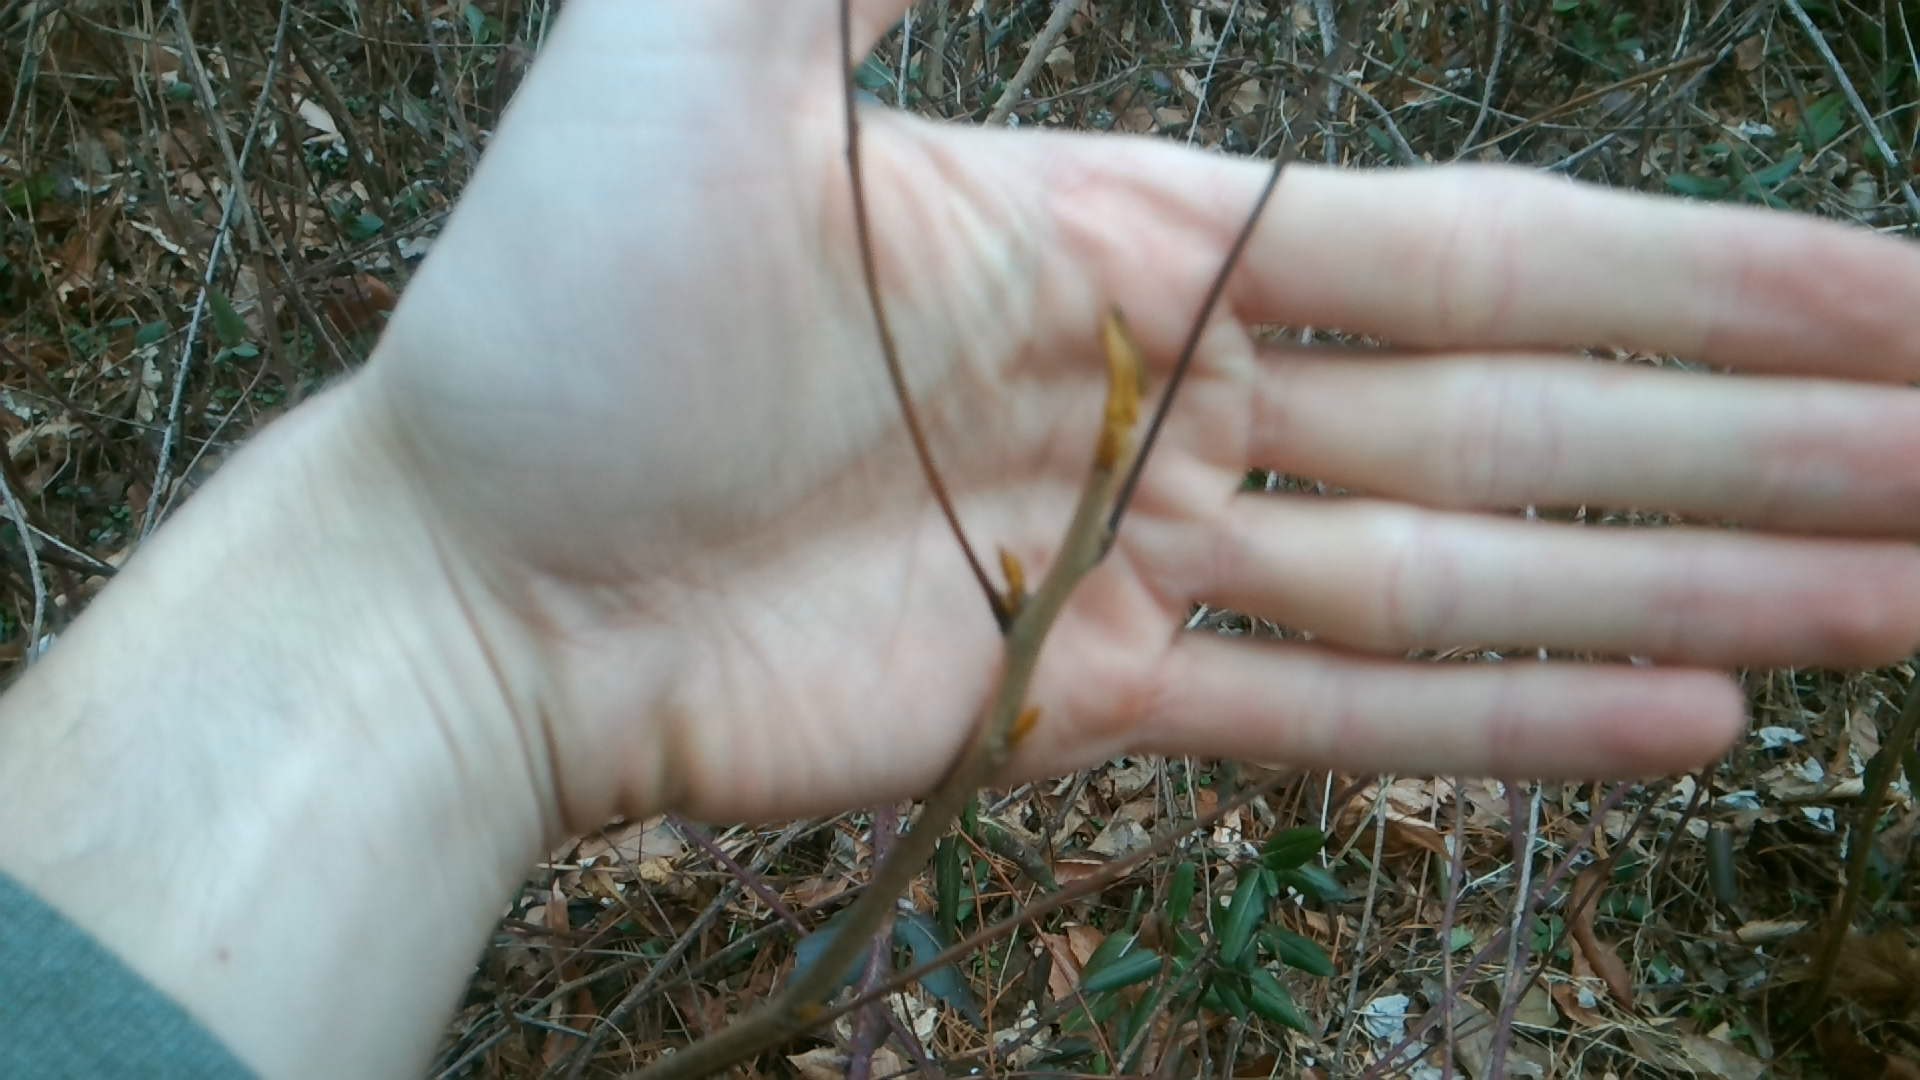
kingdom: Plantae
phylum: Tracheophyta
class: Magnoliopsida
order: Fagales
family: Juglandaceae
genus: Carya
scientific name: Carya cordiformis
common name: Bitternut hickory
